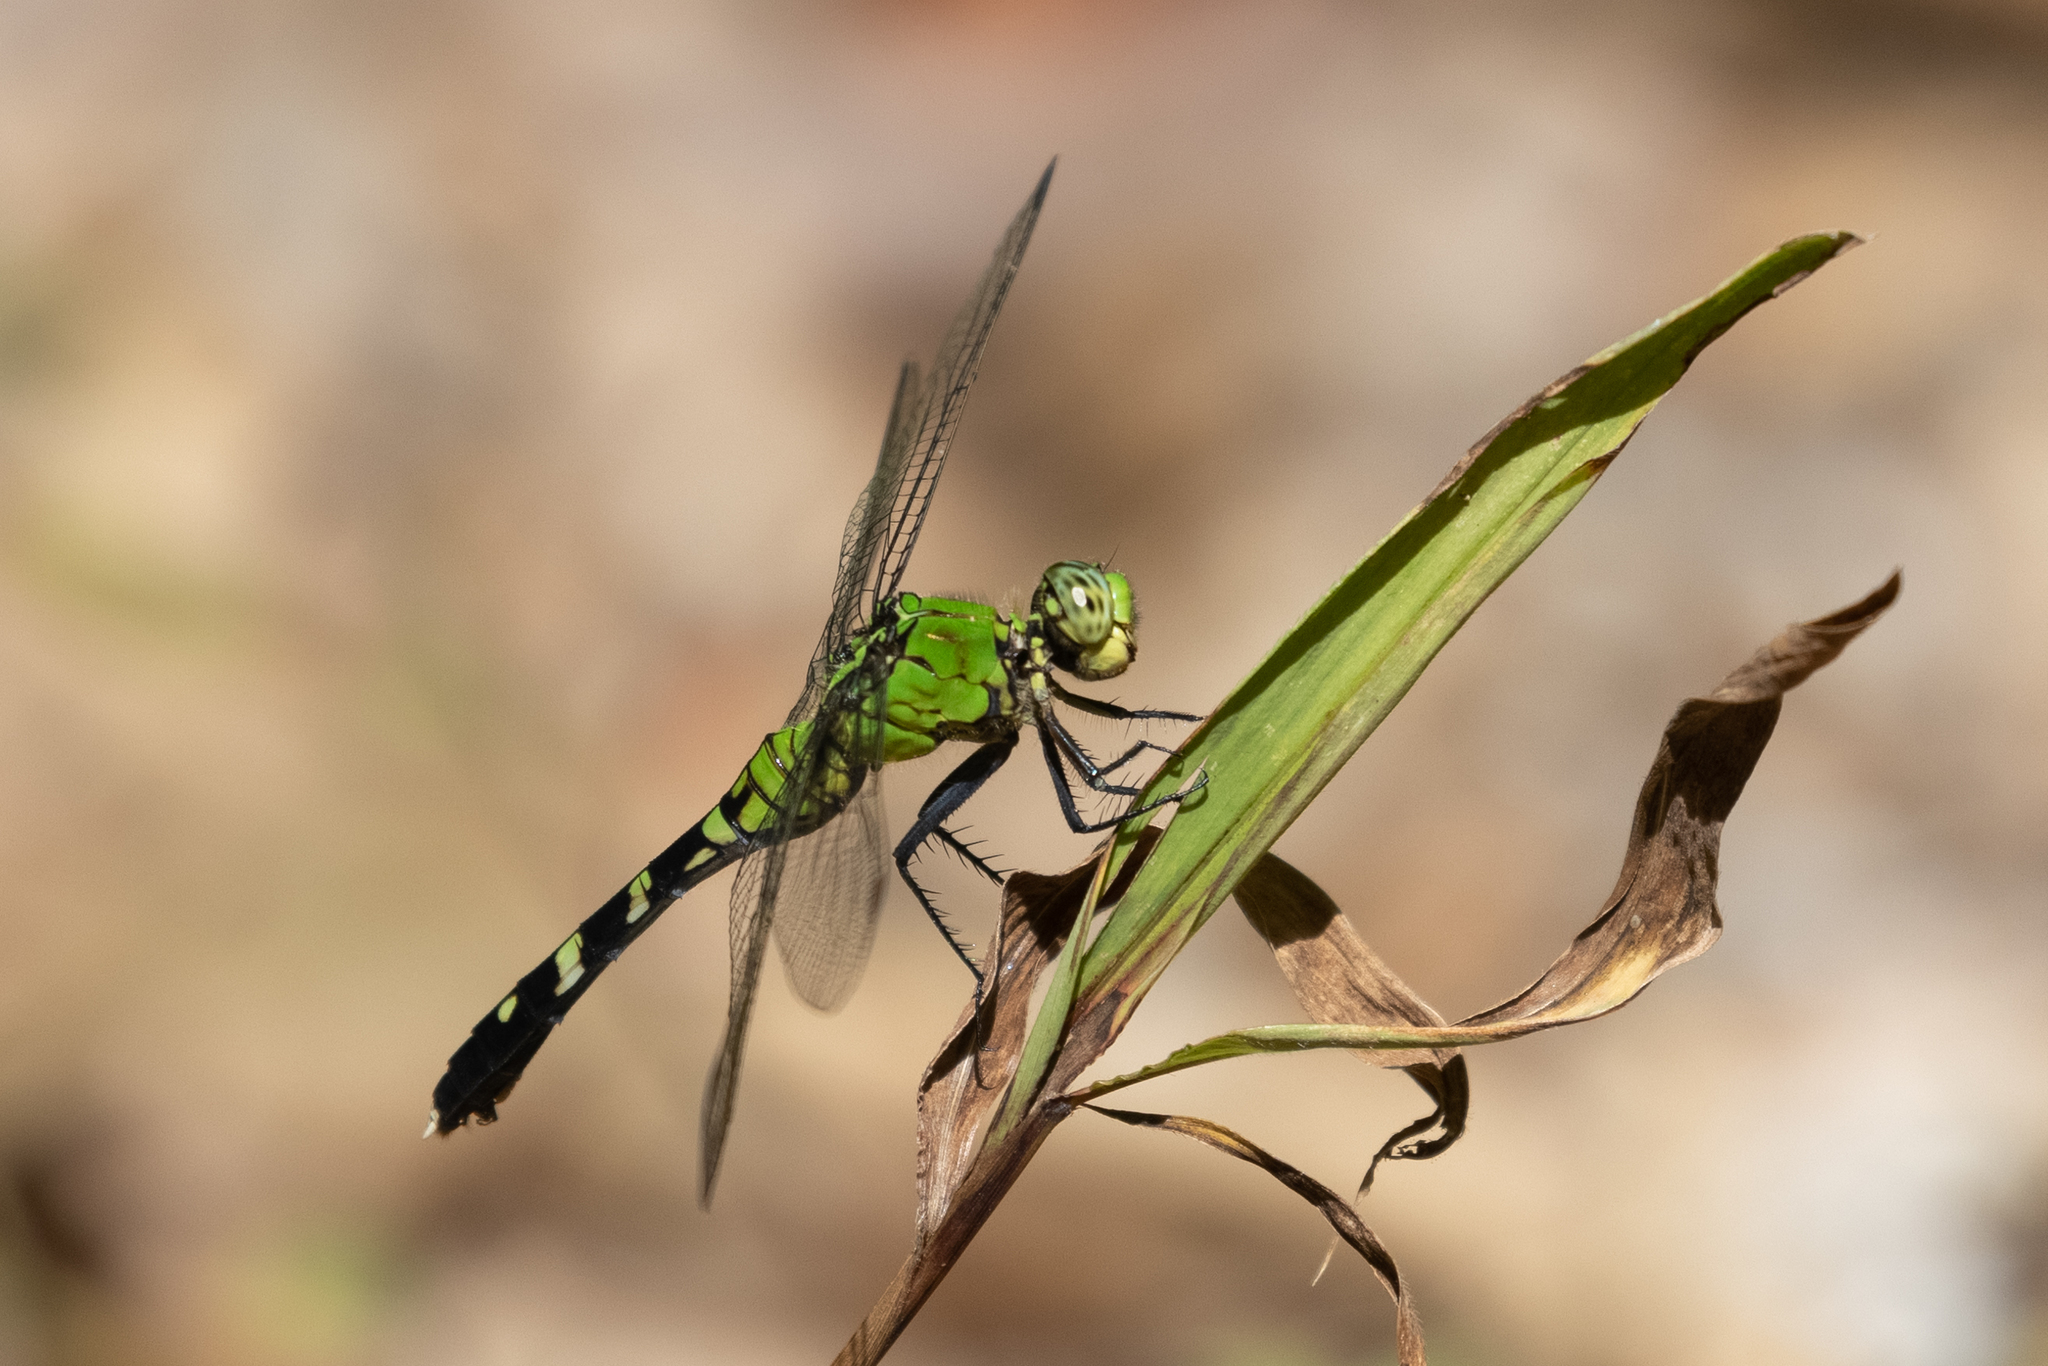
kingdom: Animalia
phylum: Arthropoda
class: Insecta
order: Odonata
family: Libellulidae
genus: Erythemis
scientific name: Erythemis simplicicollis
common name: Eastern pondhawk
